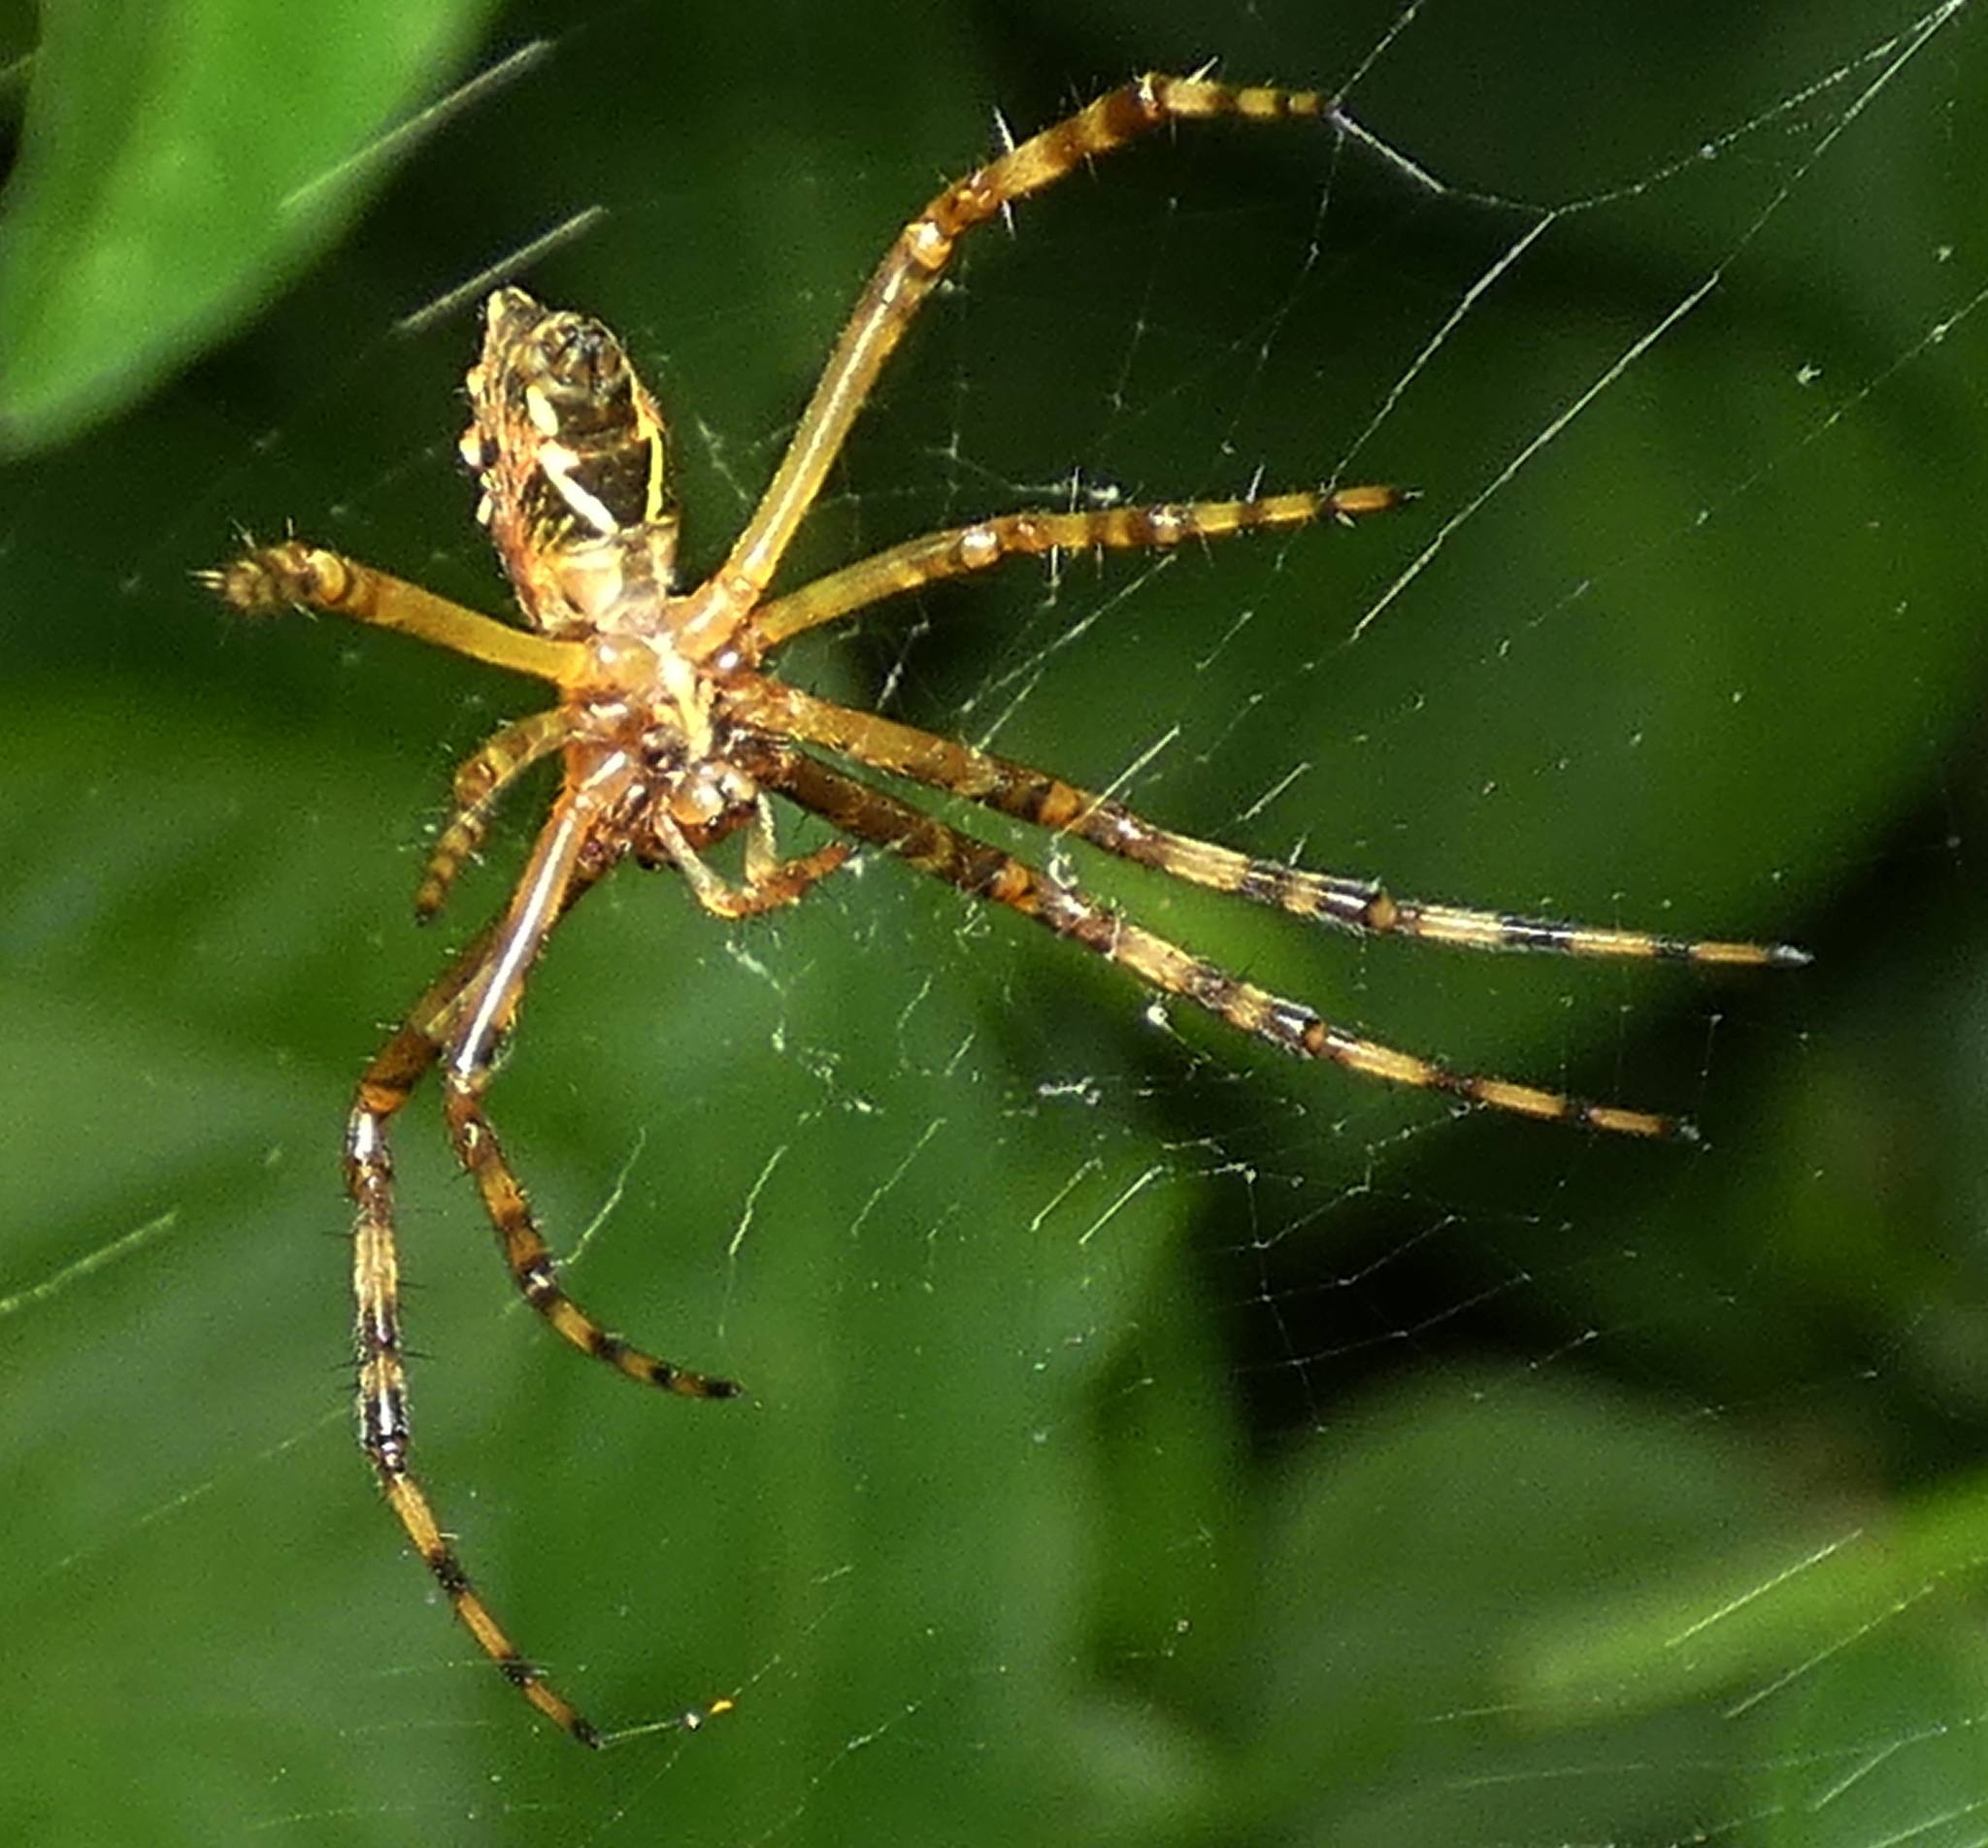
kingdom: Animalia
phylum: Arthropoda
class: Arachnida
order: Araneae
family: Araneidae
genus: Argiope
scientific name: Argiope argentata
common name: Orb weavers
